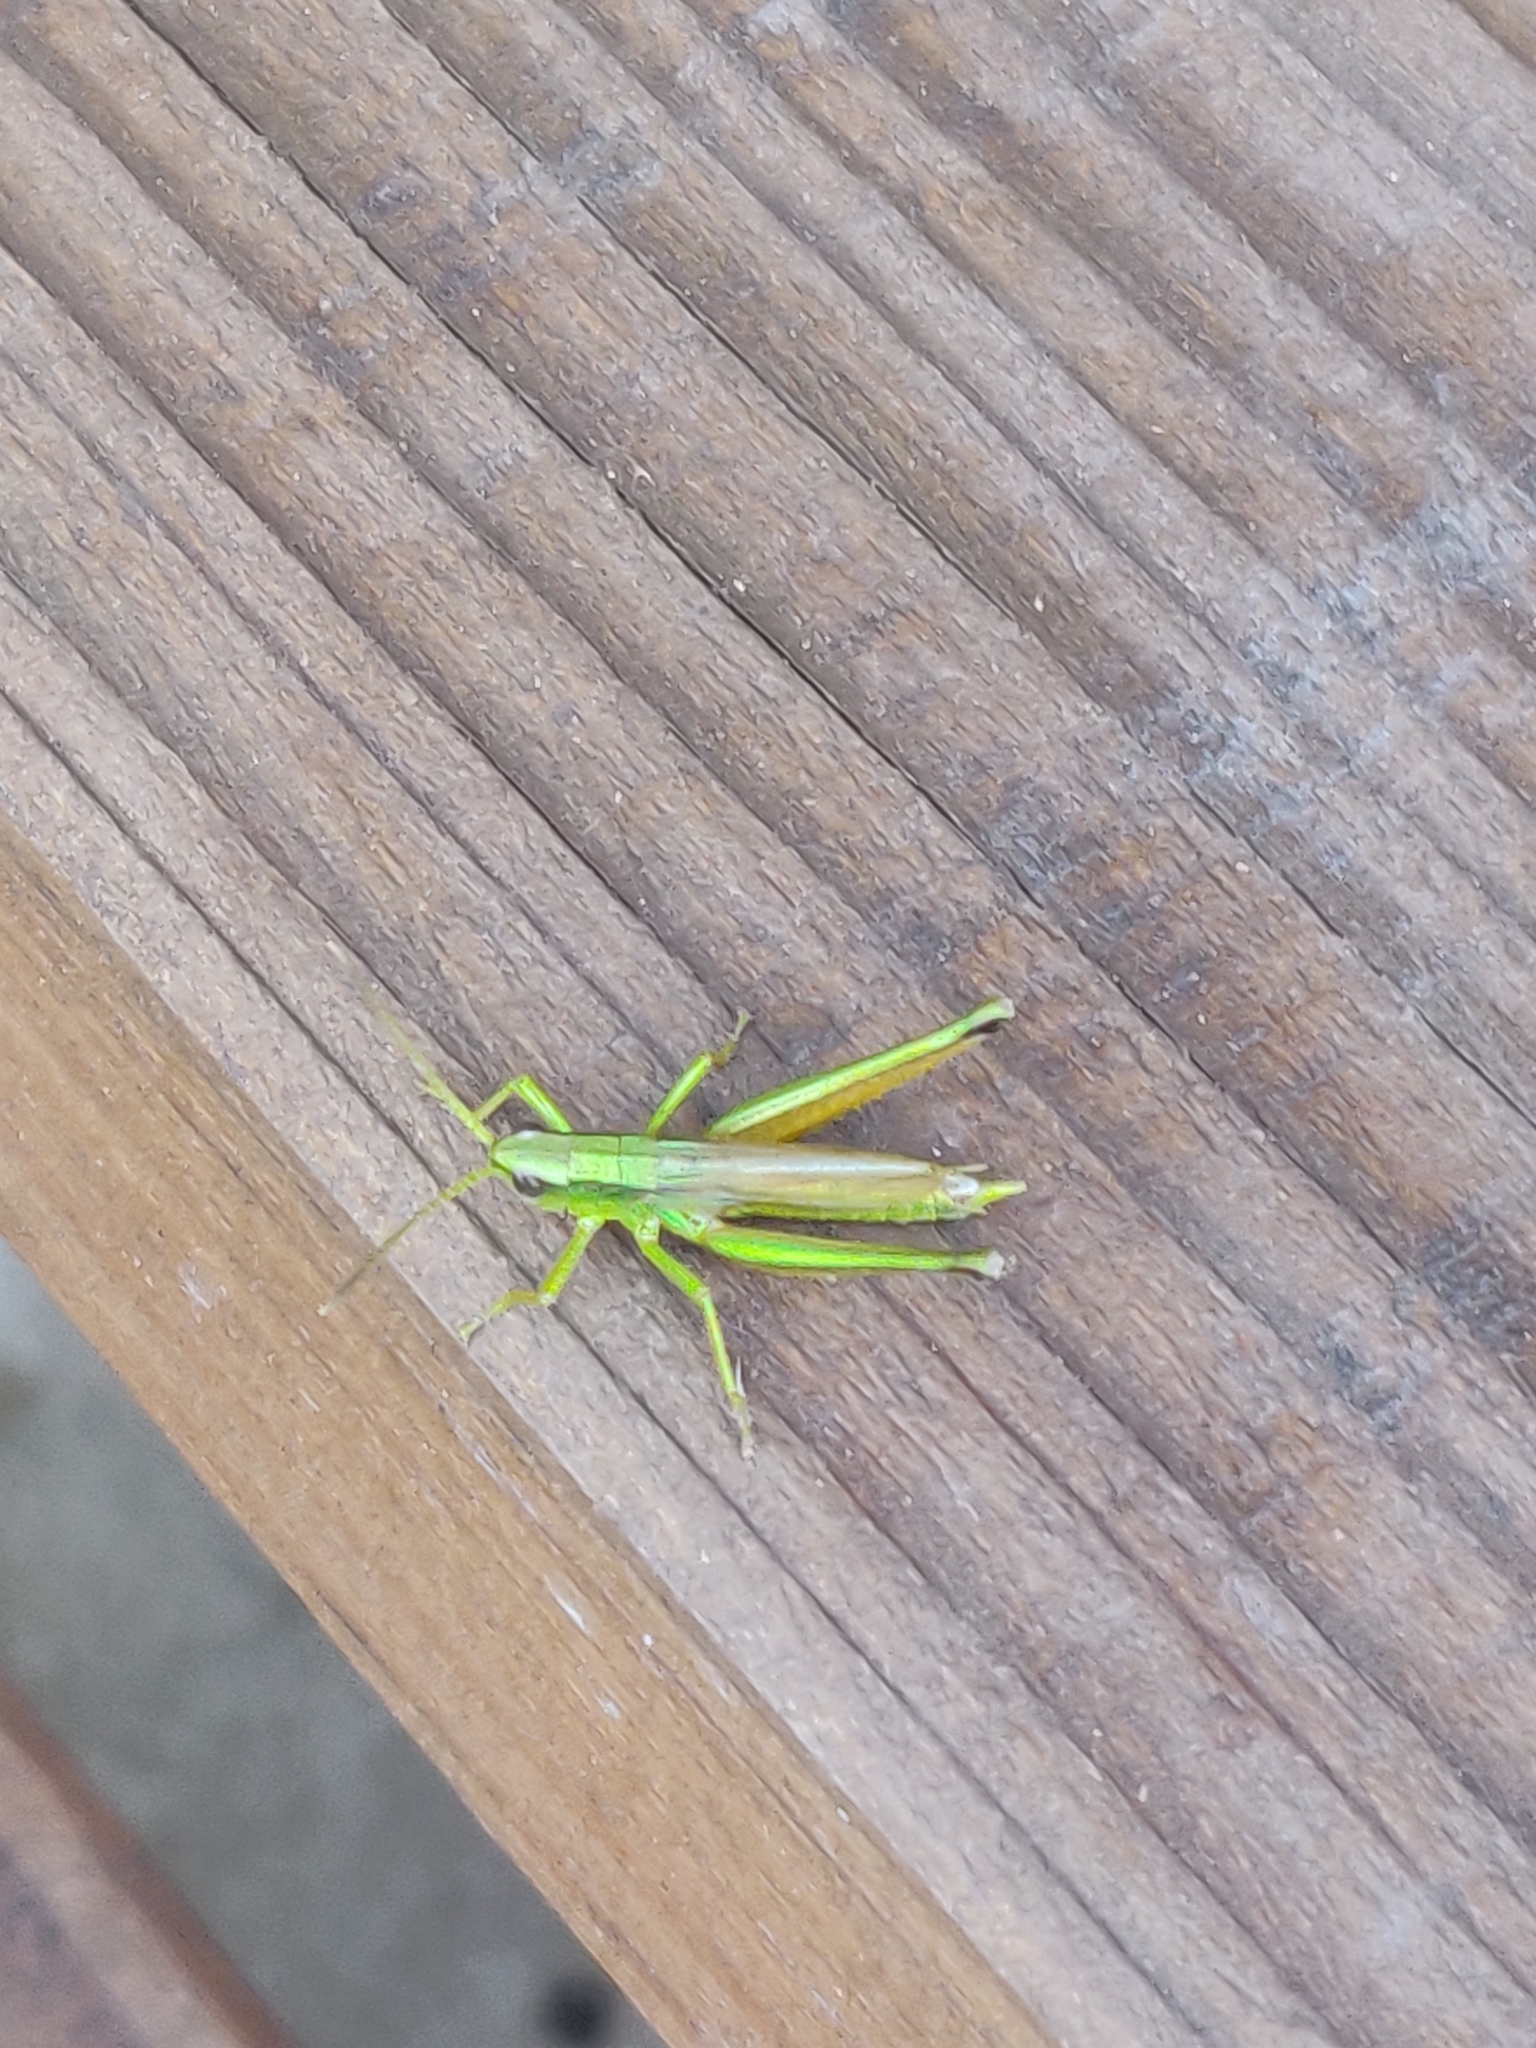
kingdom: Animalia
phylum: Arthropoda
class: Insecta
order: Orthoptera
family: Acrididae
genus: Chrysochraon
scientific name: Chrysochraon dispar
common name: Large gold grasshopper
